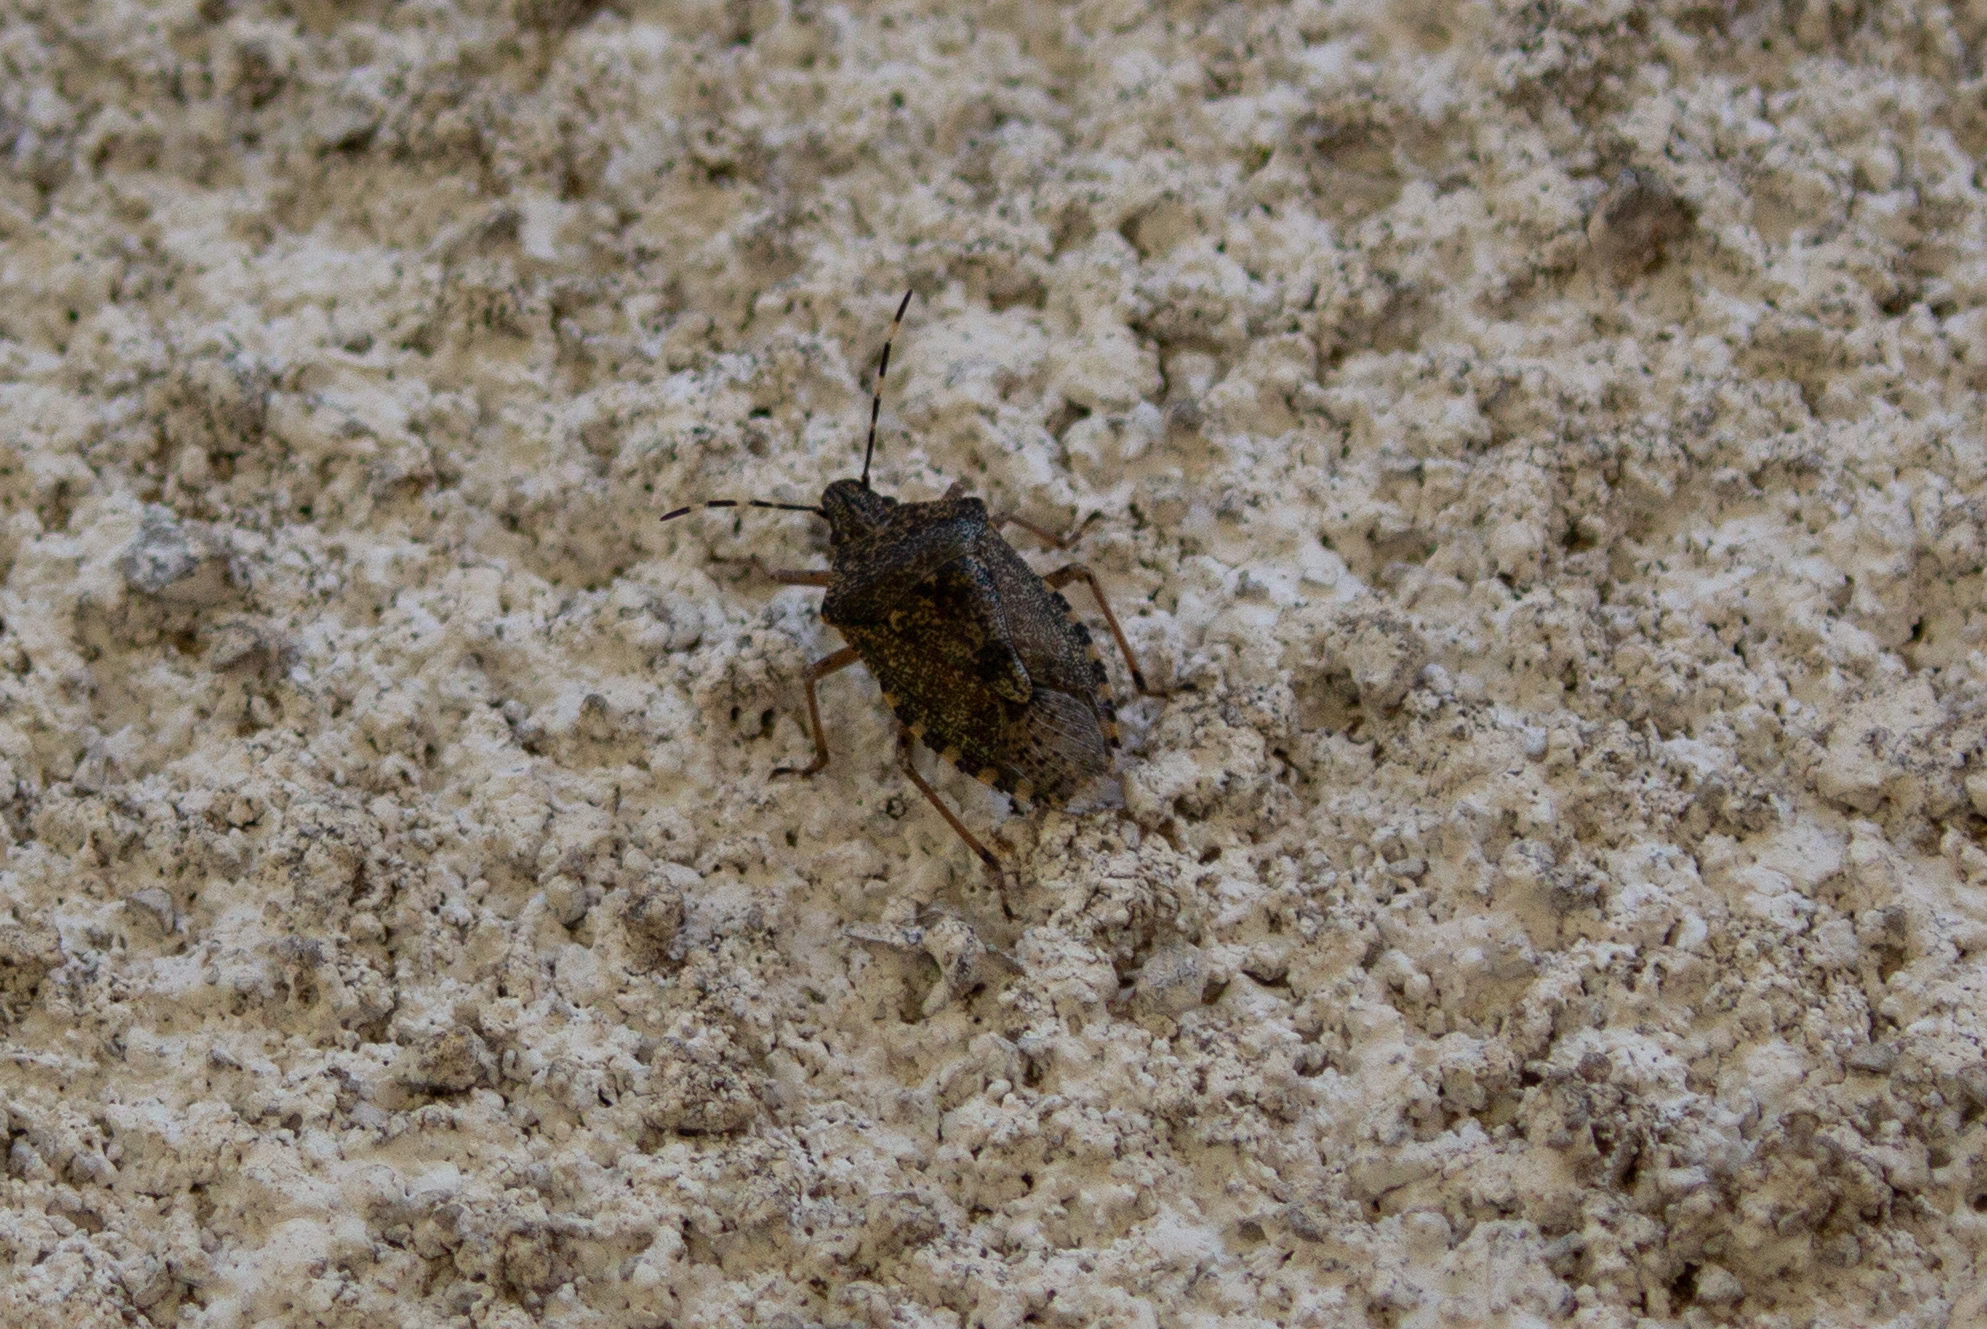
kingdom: Animalia
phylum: Arthropoda
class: Insecta
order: Hemiptera
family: Pentatomidae
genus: Rhaphigaster
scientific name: Rhaphigaster nebulosa
